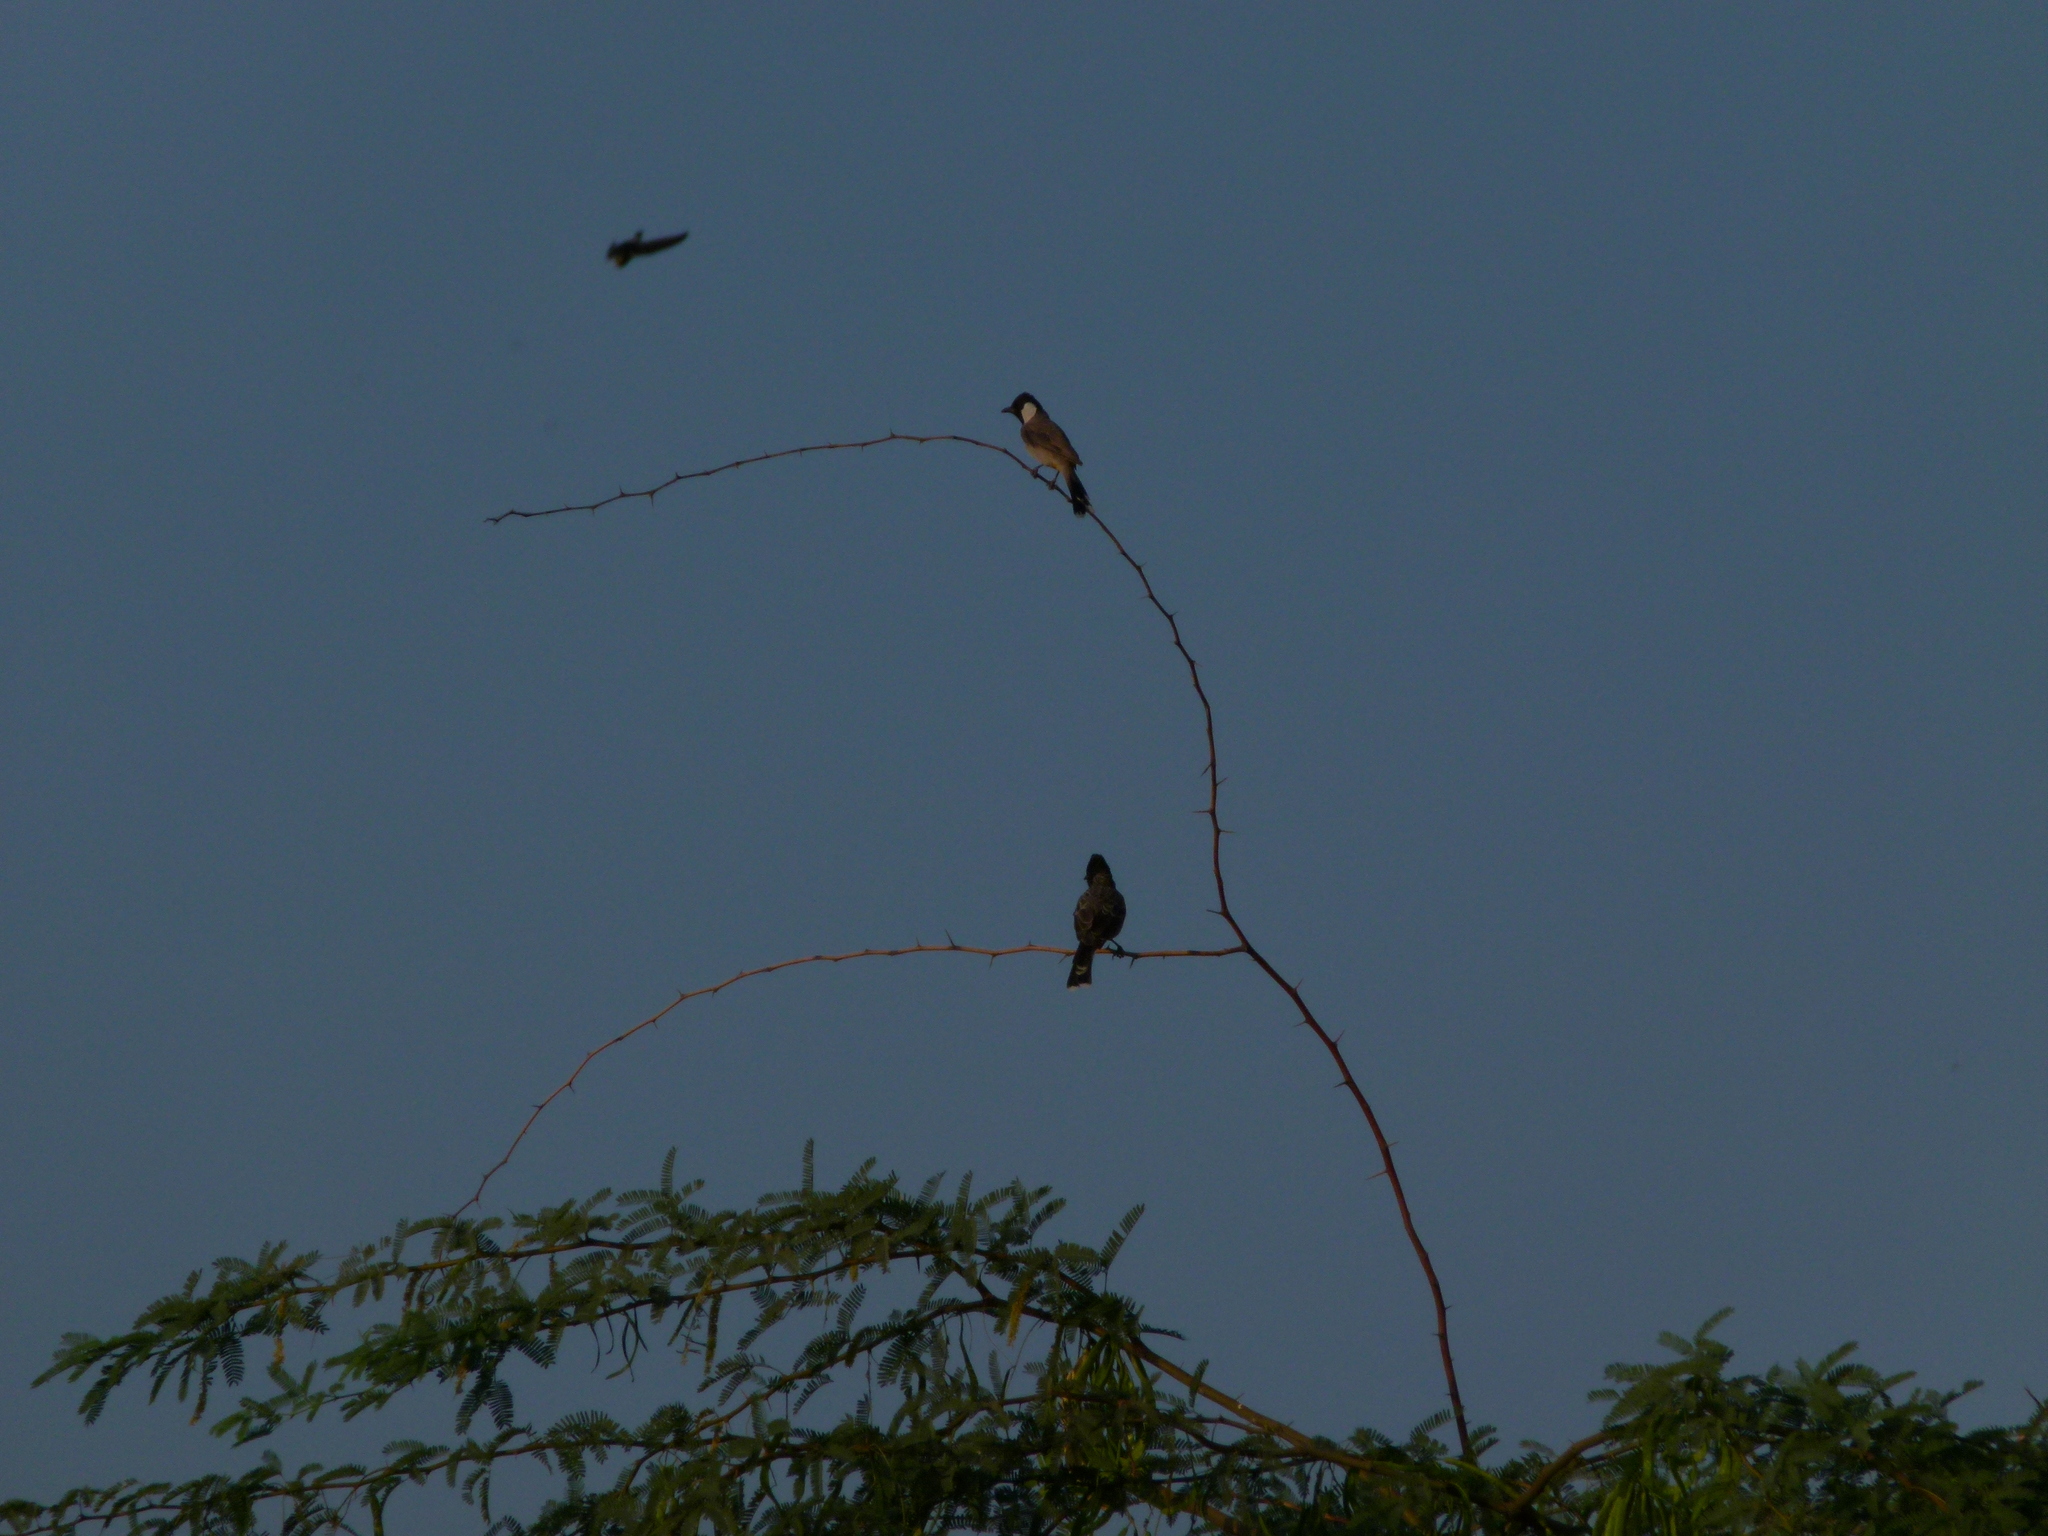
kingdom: Animalia
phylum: Chordata
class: Aves
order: Passeriformes
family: Pycnonotidae
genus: Pycnonotus
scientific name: Pycnonotus leucotis
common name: White-eared bulbul
